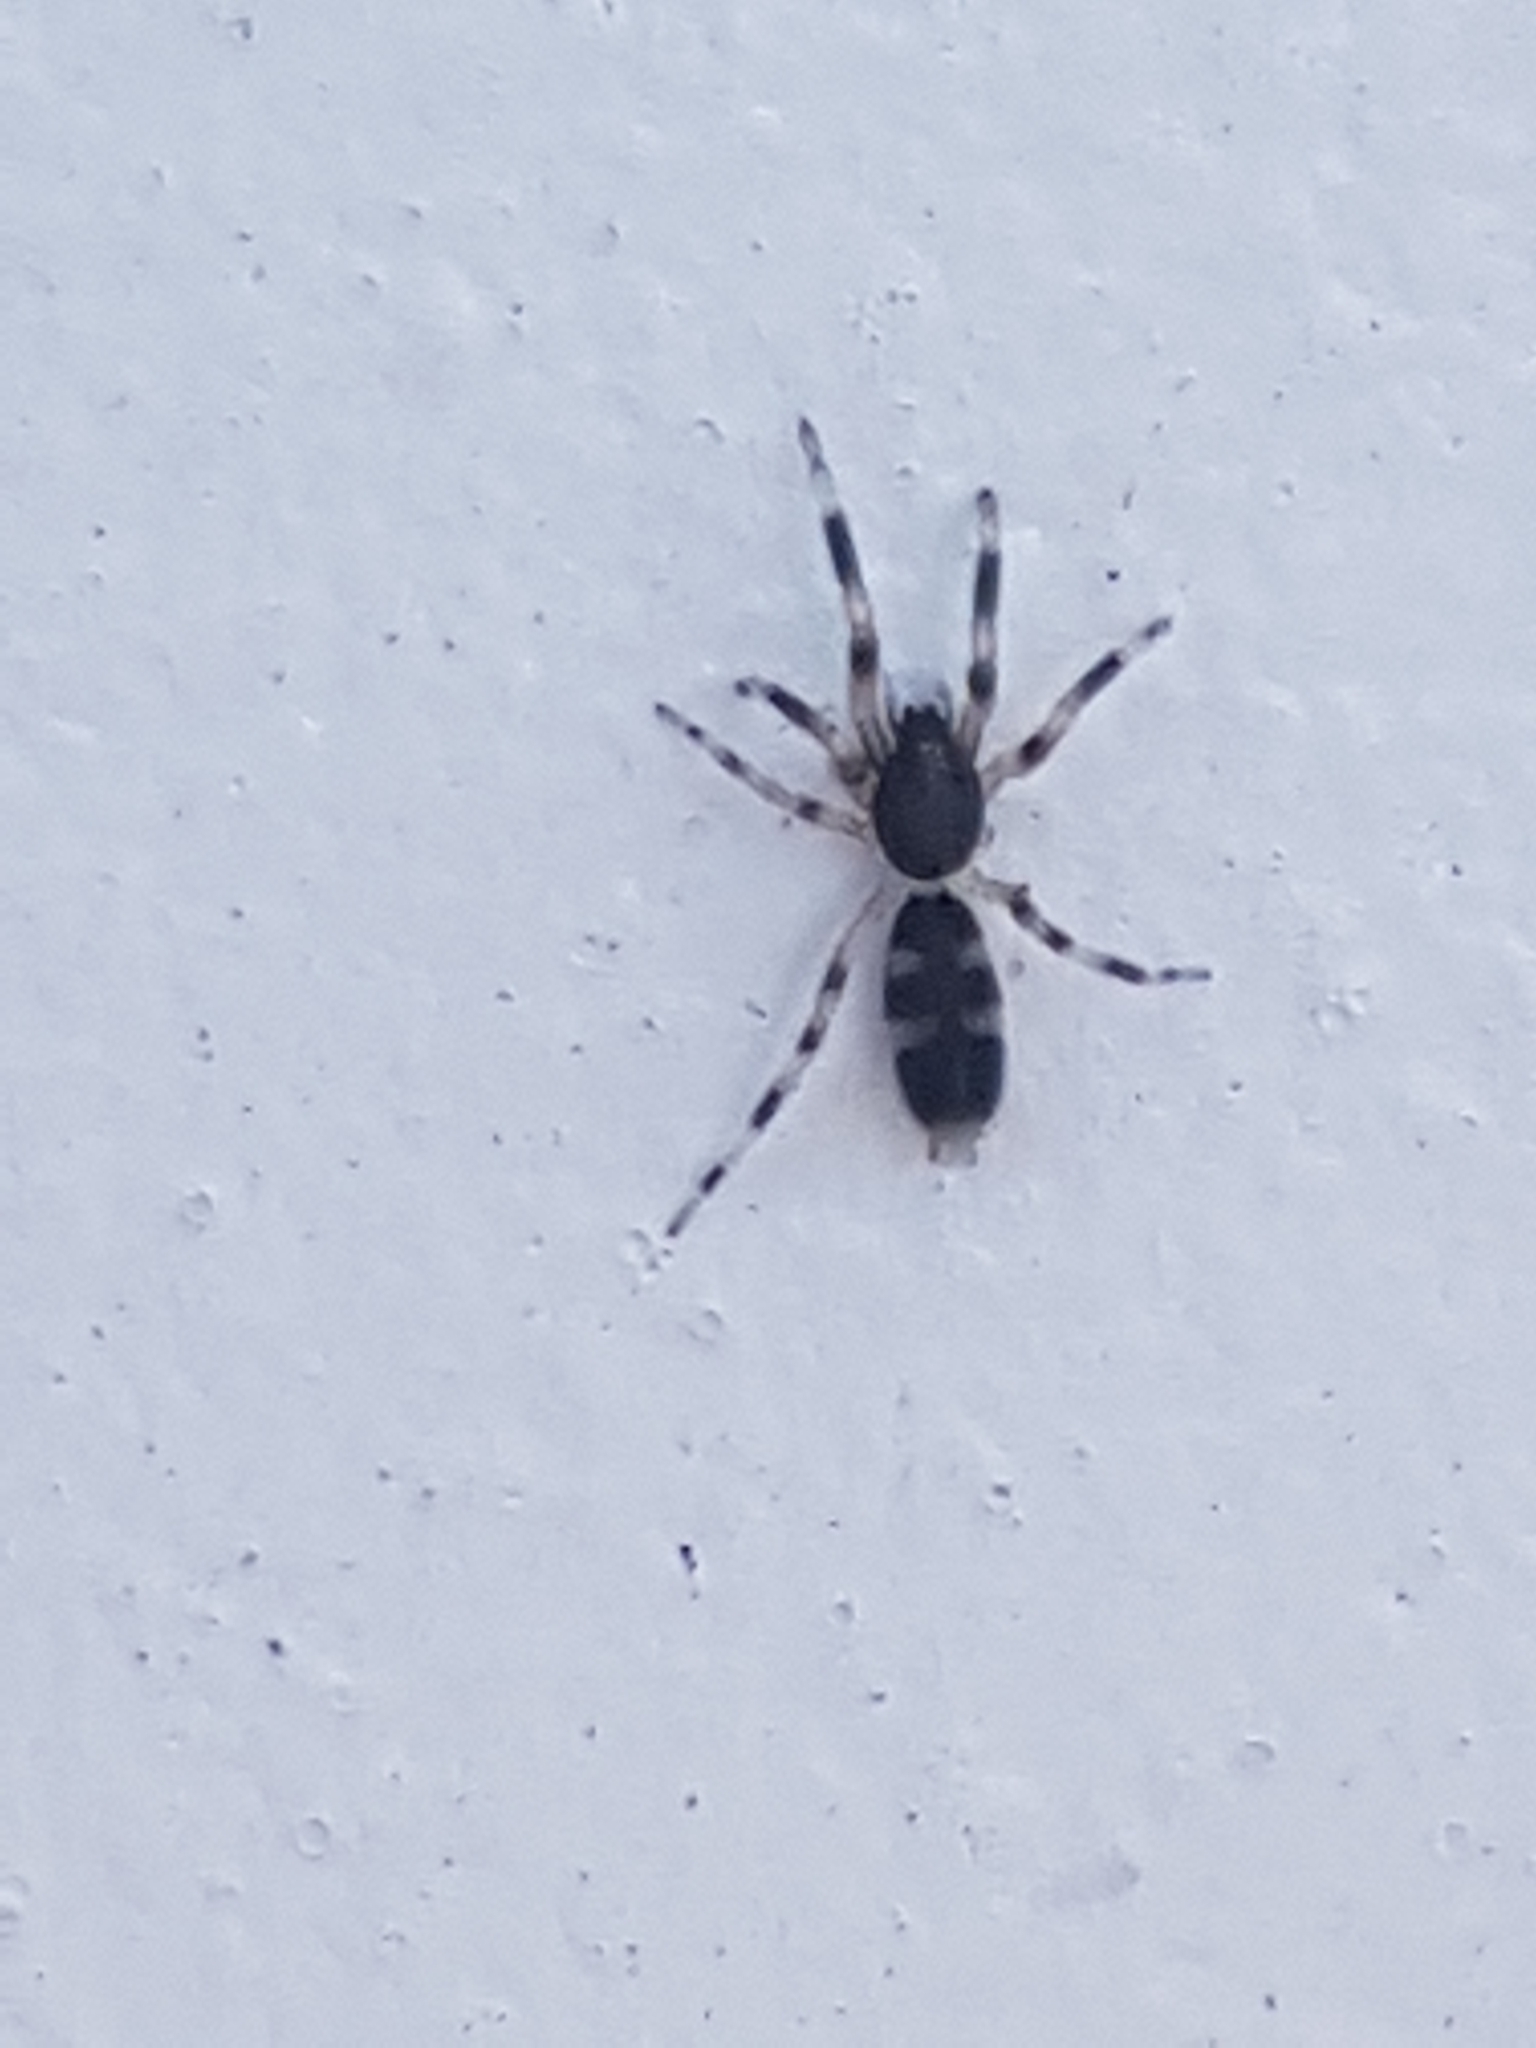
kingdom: Animalia
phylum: Arthropoda
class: Arachnida
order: Araneae
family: Lamponidae
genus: Lampona
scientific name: Lampona murina
